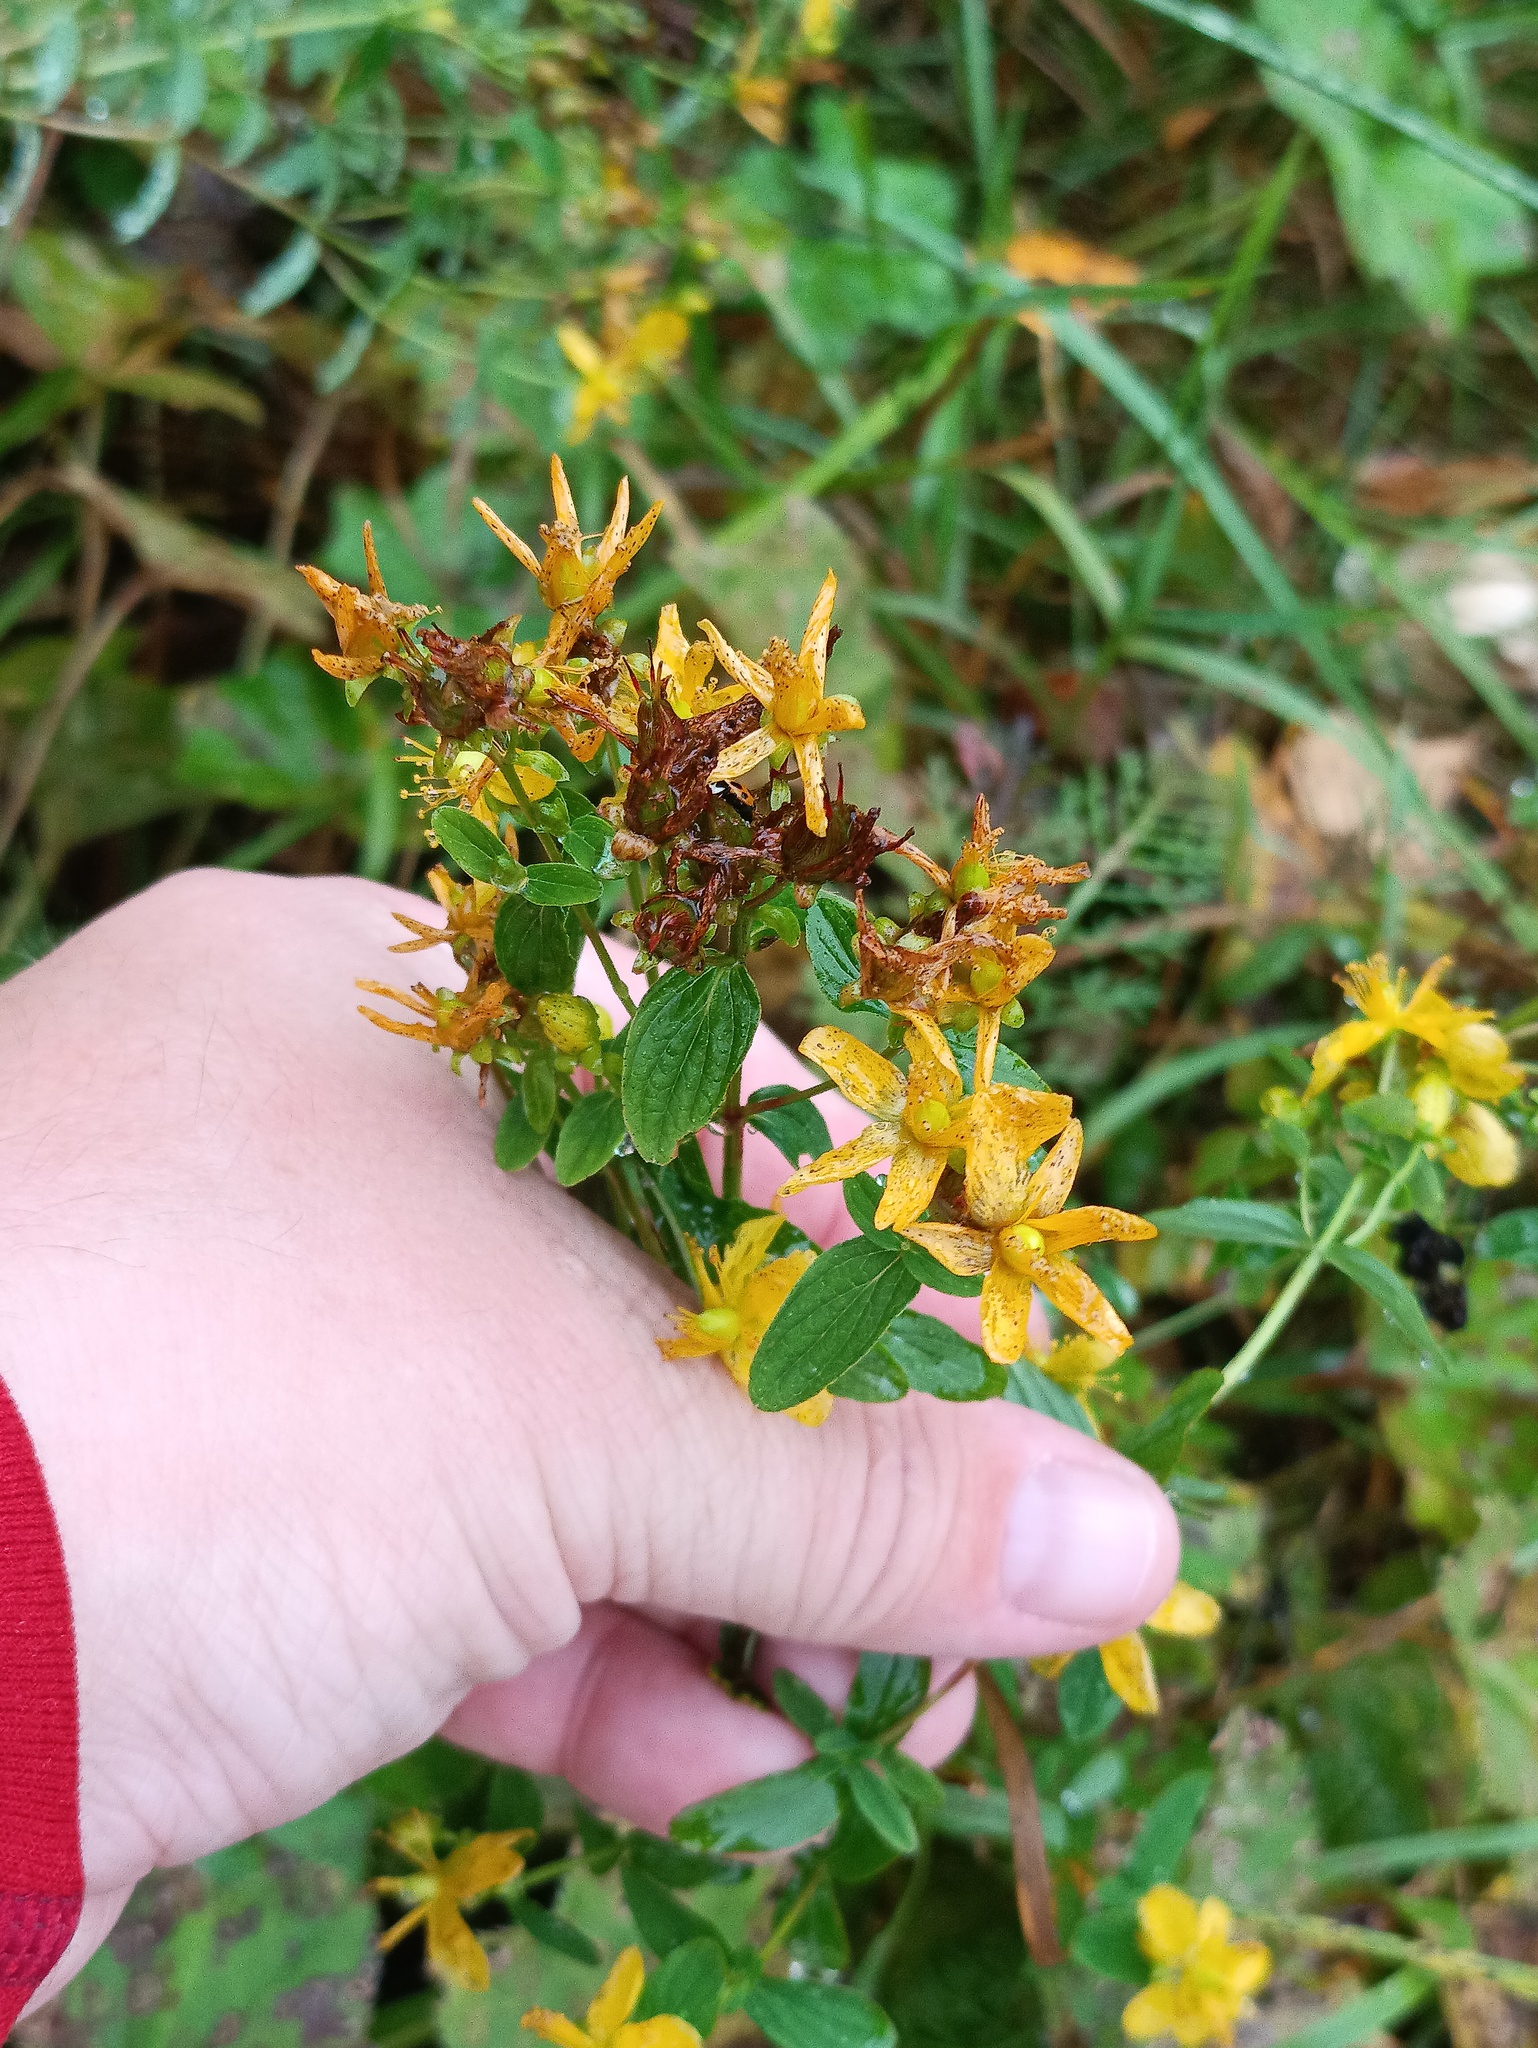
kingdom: Plantae
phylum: Tracheophyta
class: Magnoliopsida
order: Malpighiales
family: Hypericaceae
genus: Hypericum
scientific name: Hypericum maculatum
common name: Imperforate st. john's-wort
